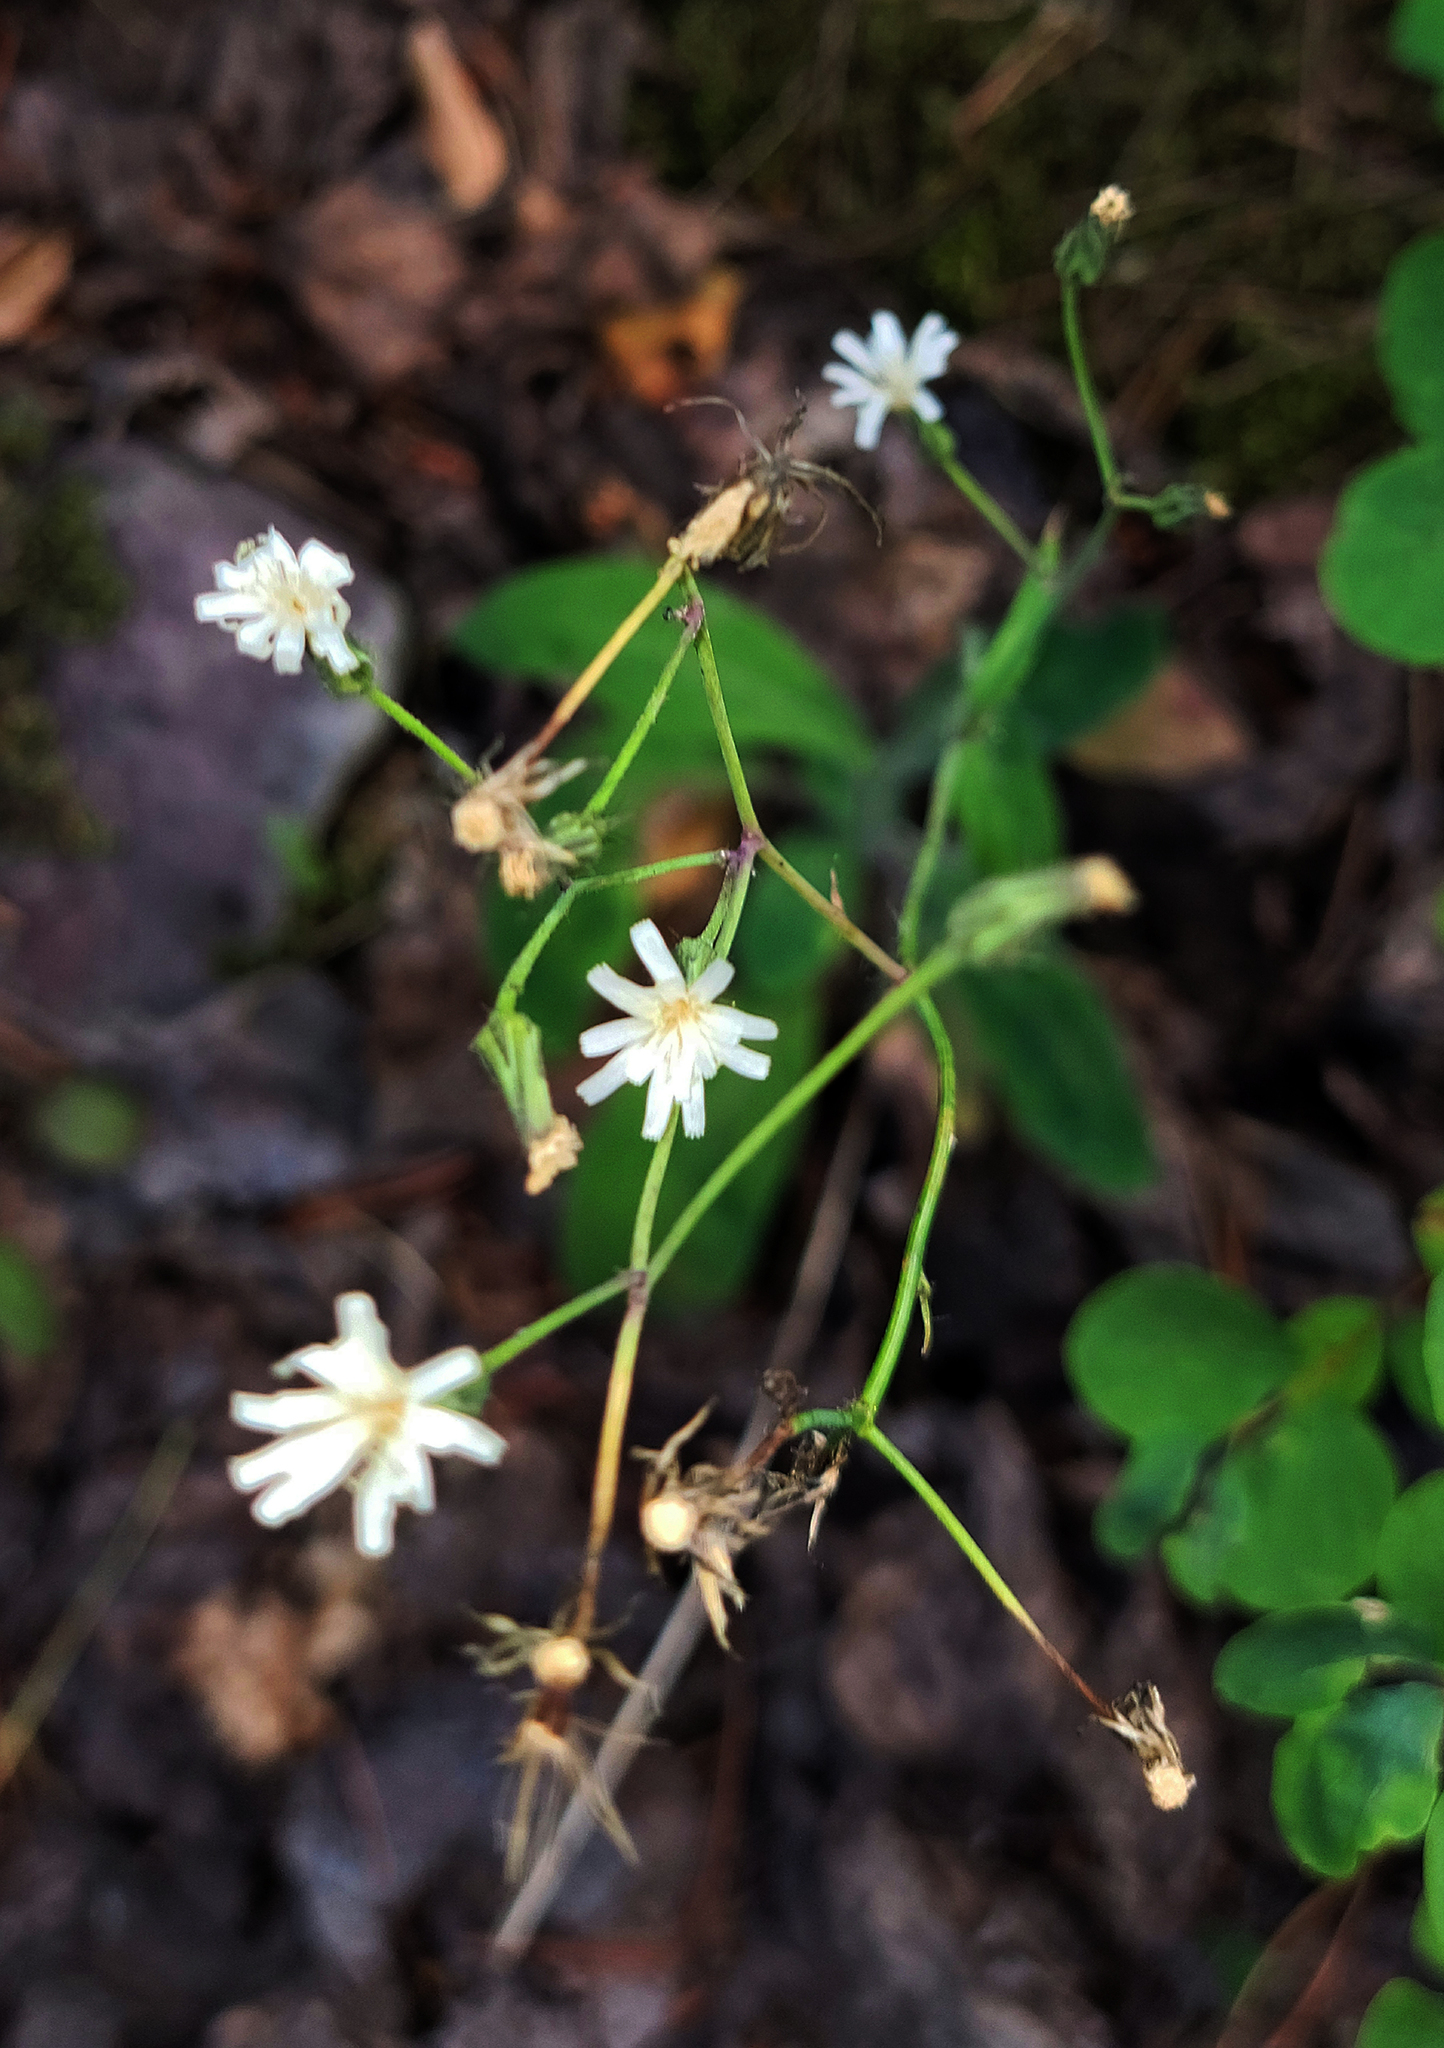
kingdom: Plantae
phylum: Tracheophyta
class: Magnoliopsida
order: Asterales
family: Asteraceae
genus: Hieracium
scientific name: Hieracium albiflorum
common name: White hawkweed
